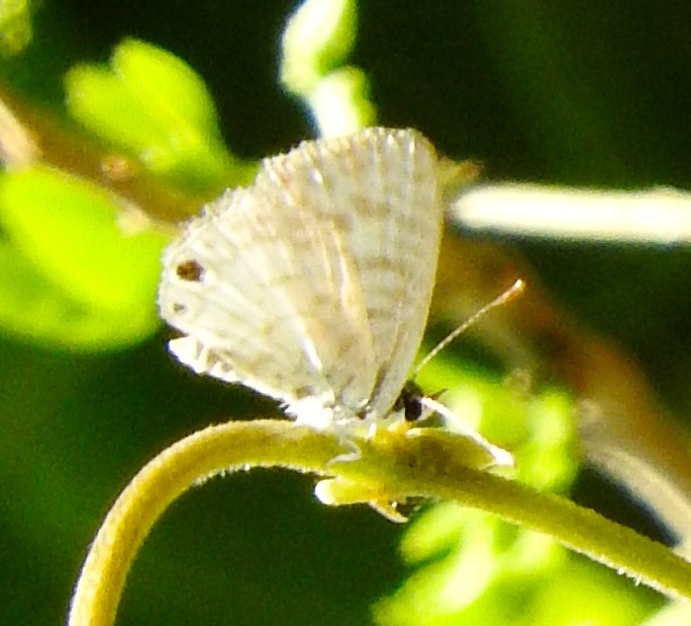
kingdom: Animalia
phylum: Arthropoda
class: Insecta
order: Lepidoptera
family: Lycaenidae
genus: Leptotes
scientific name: Leptotes
